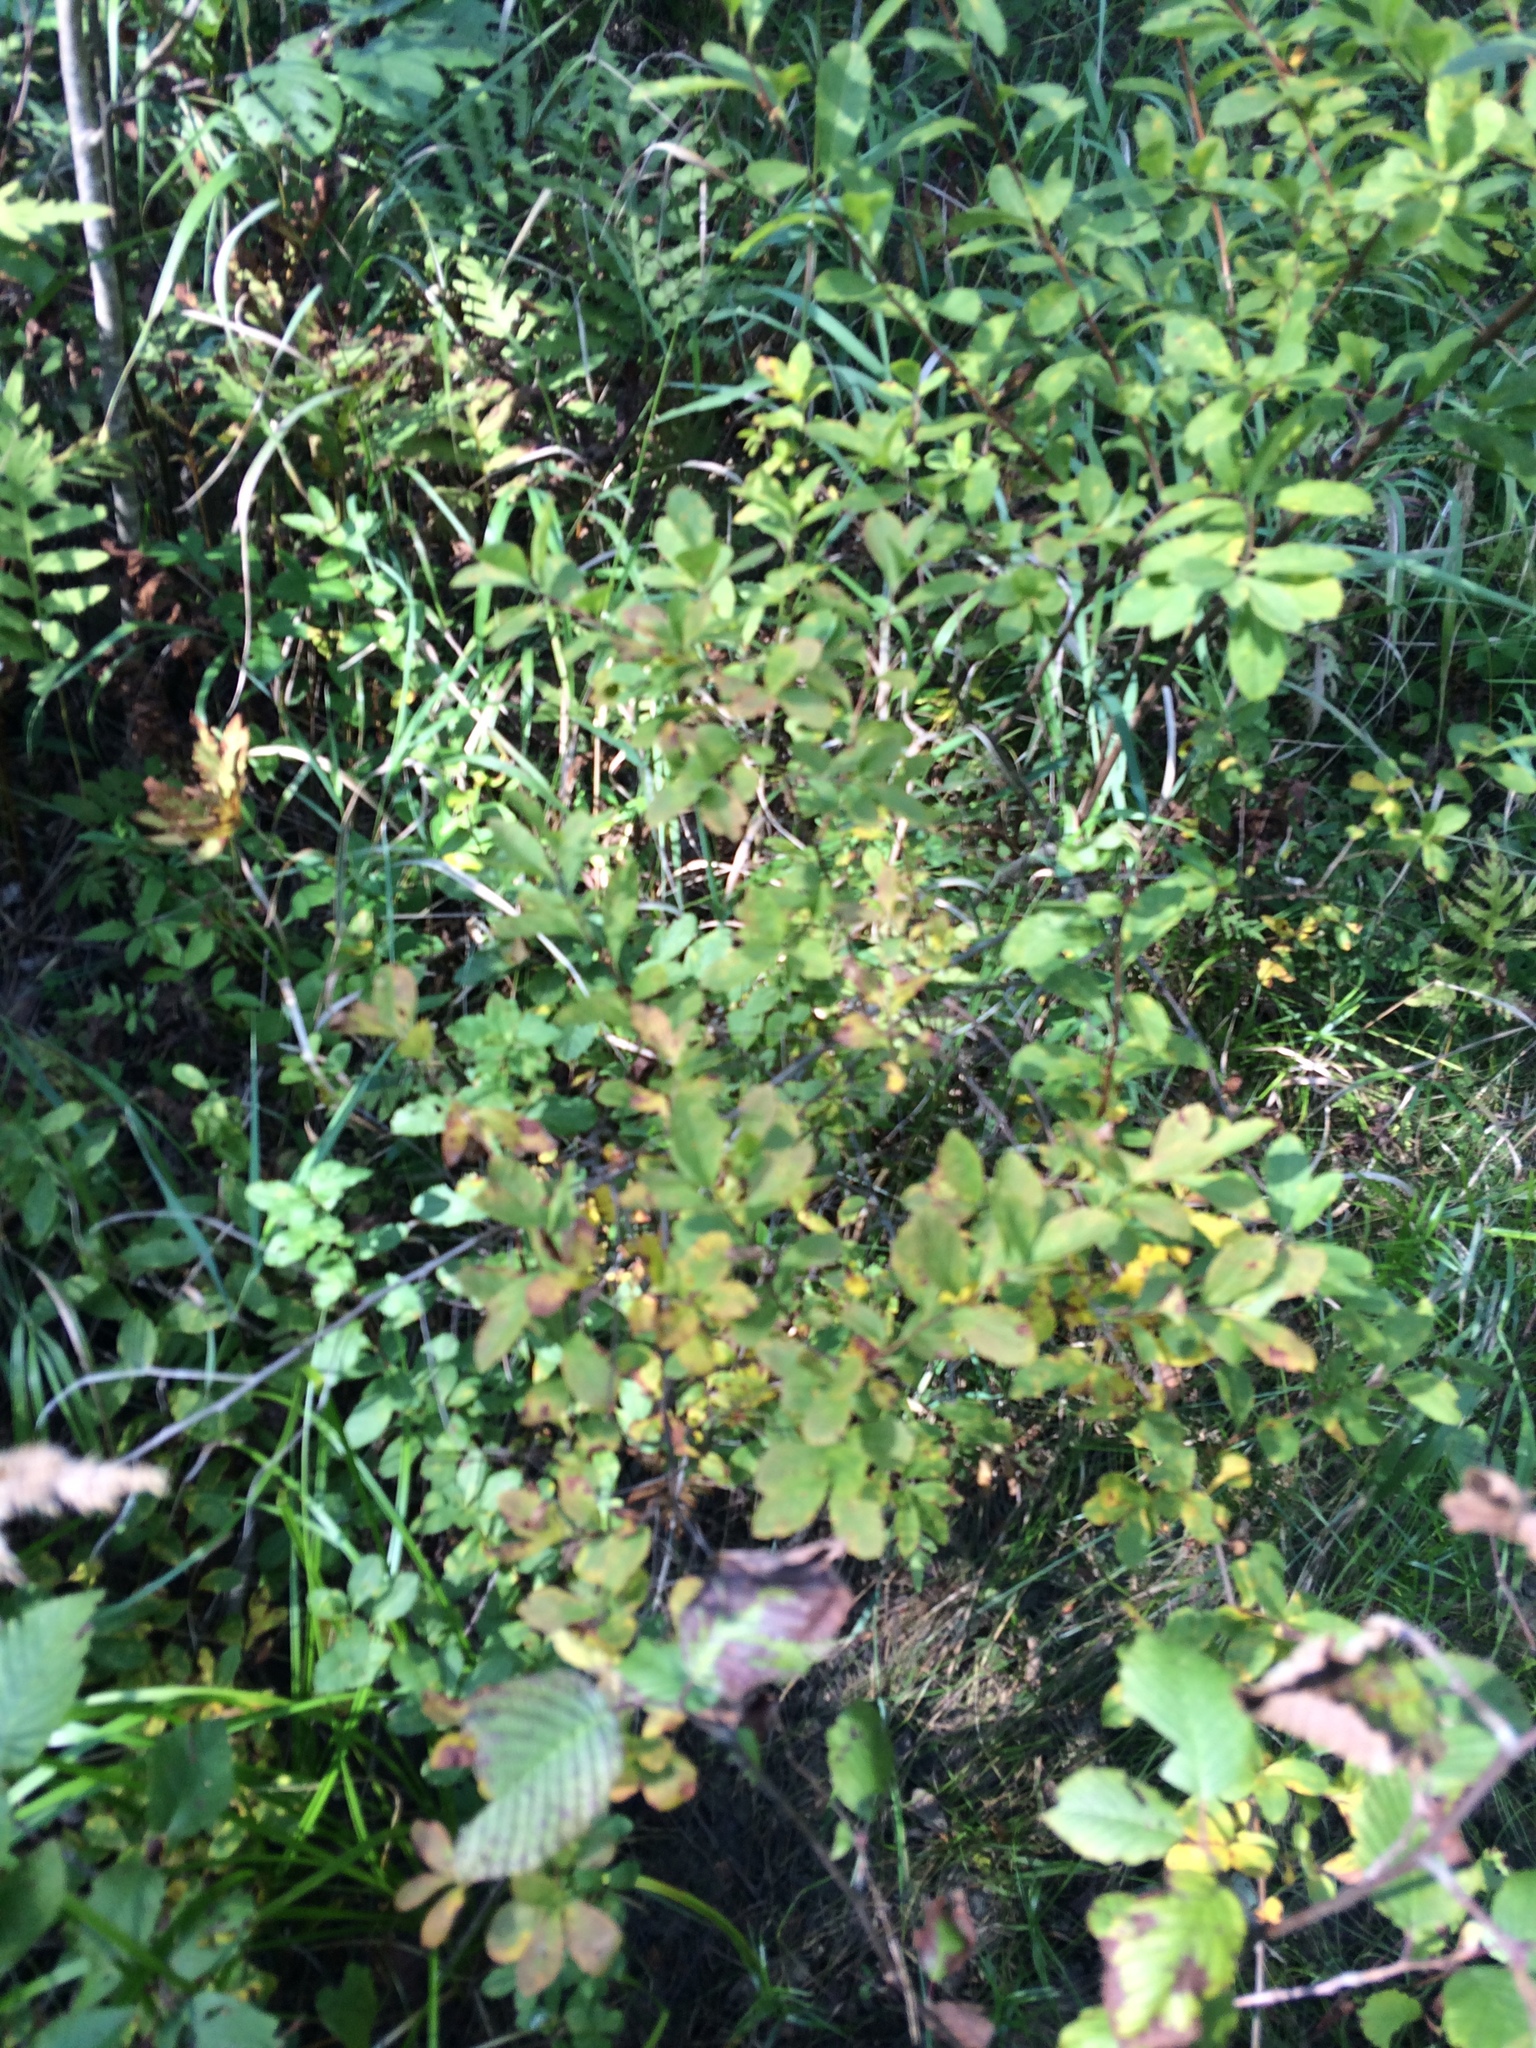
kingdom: Plantae
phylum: Tracheophyta
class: Magnoliopsida
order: Rosales
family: Rosaceae
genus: Spiraea
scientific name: Spiraea alba
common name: Pale bridewort
